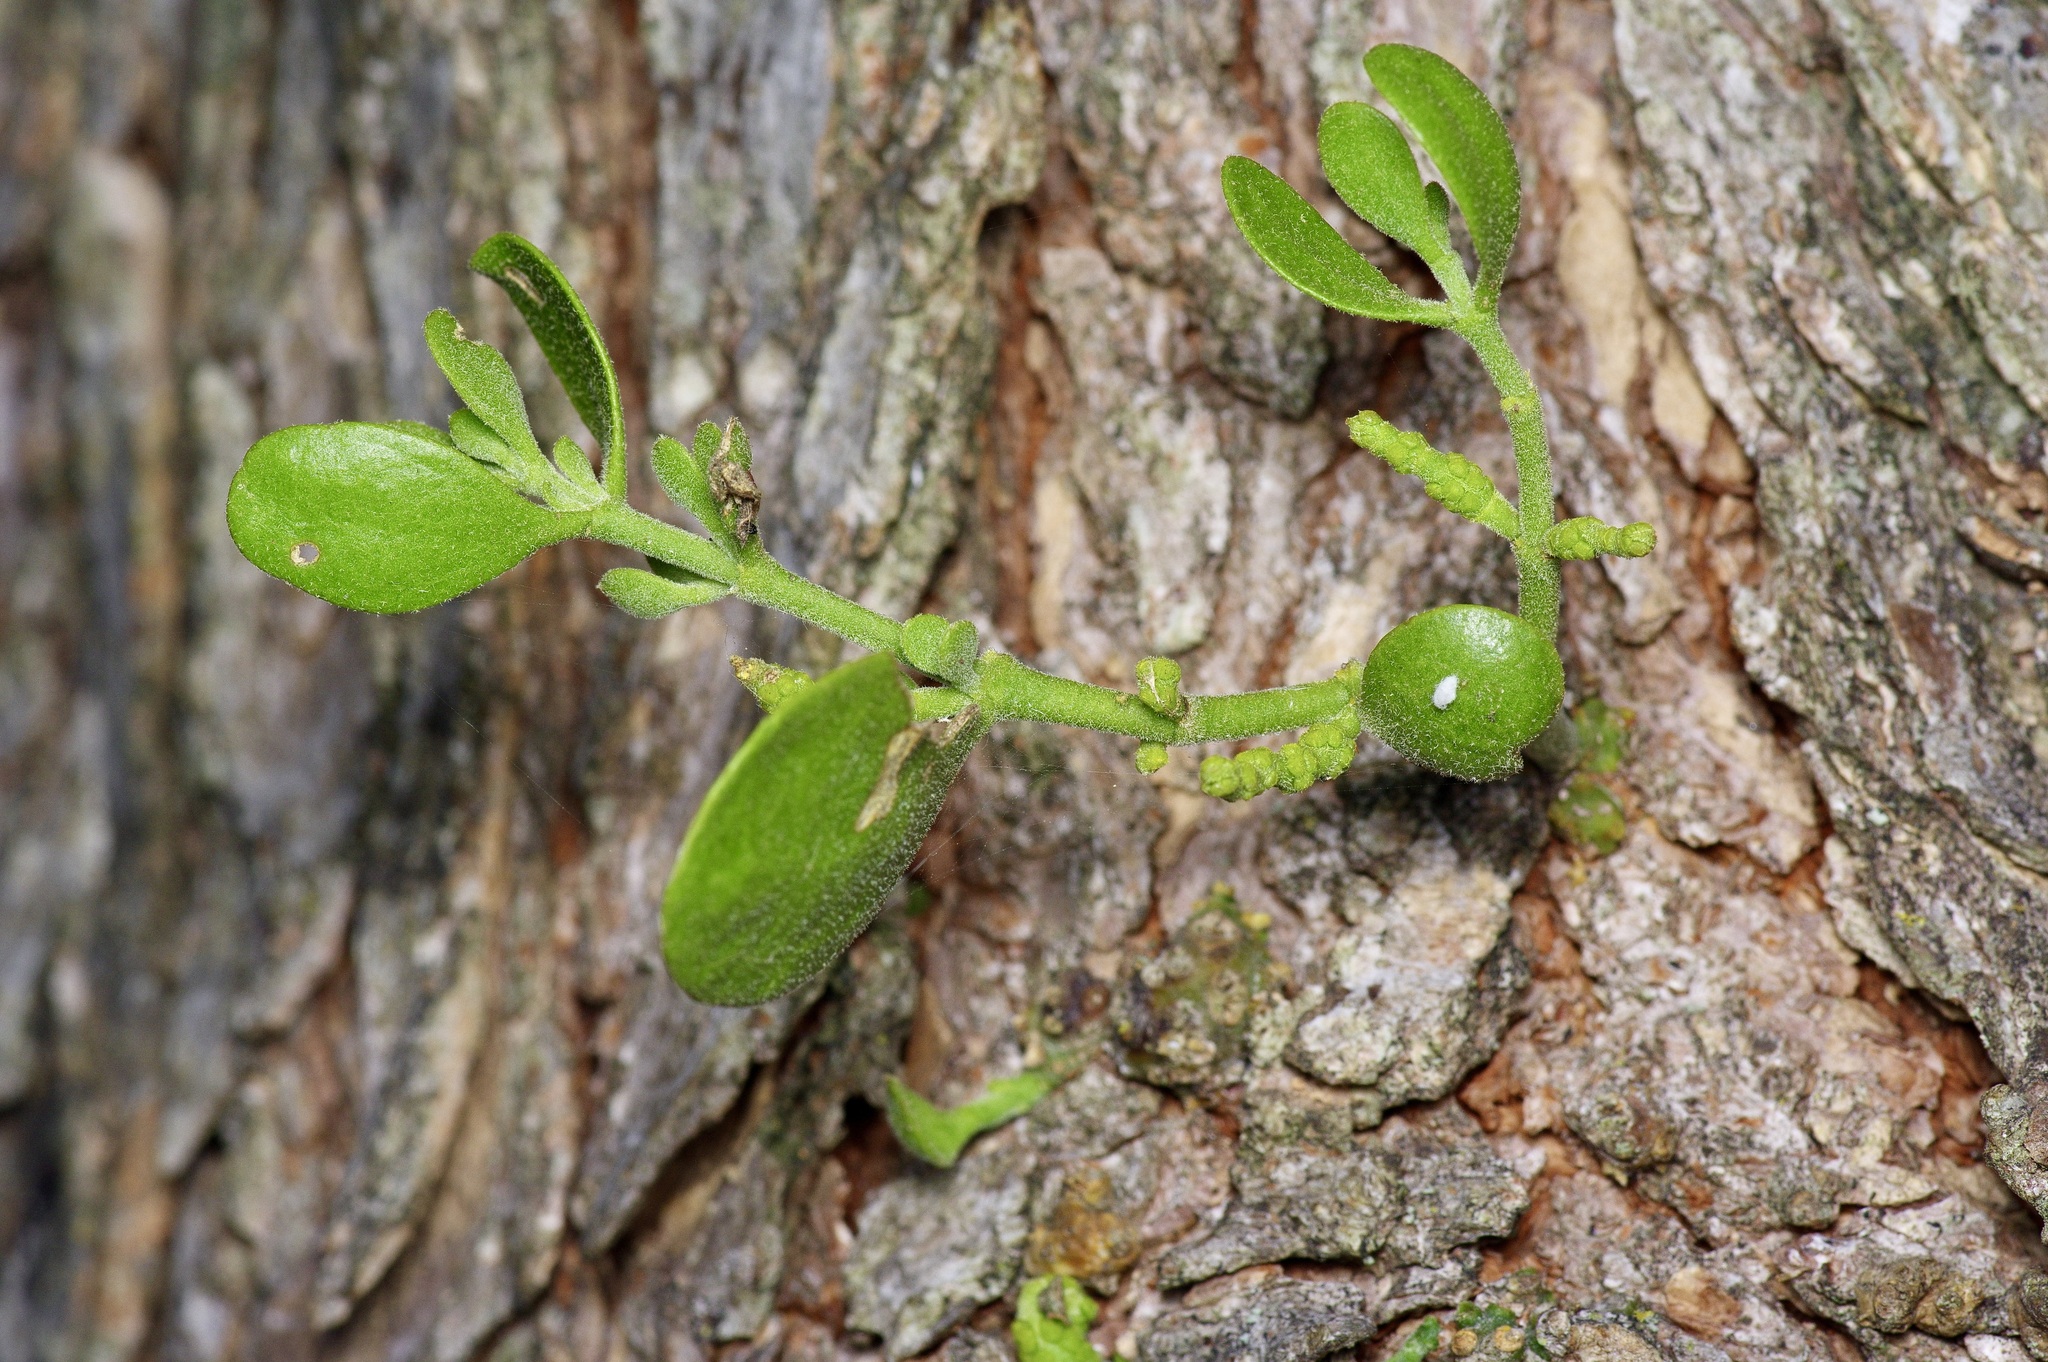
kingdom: Plantae
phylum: Tracheophyta
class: Magnoliopsida
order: Santalales
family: Viscaceae
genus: Phoradendron
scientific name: Phoradendron leucarpum
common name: Pacific mistletoe
